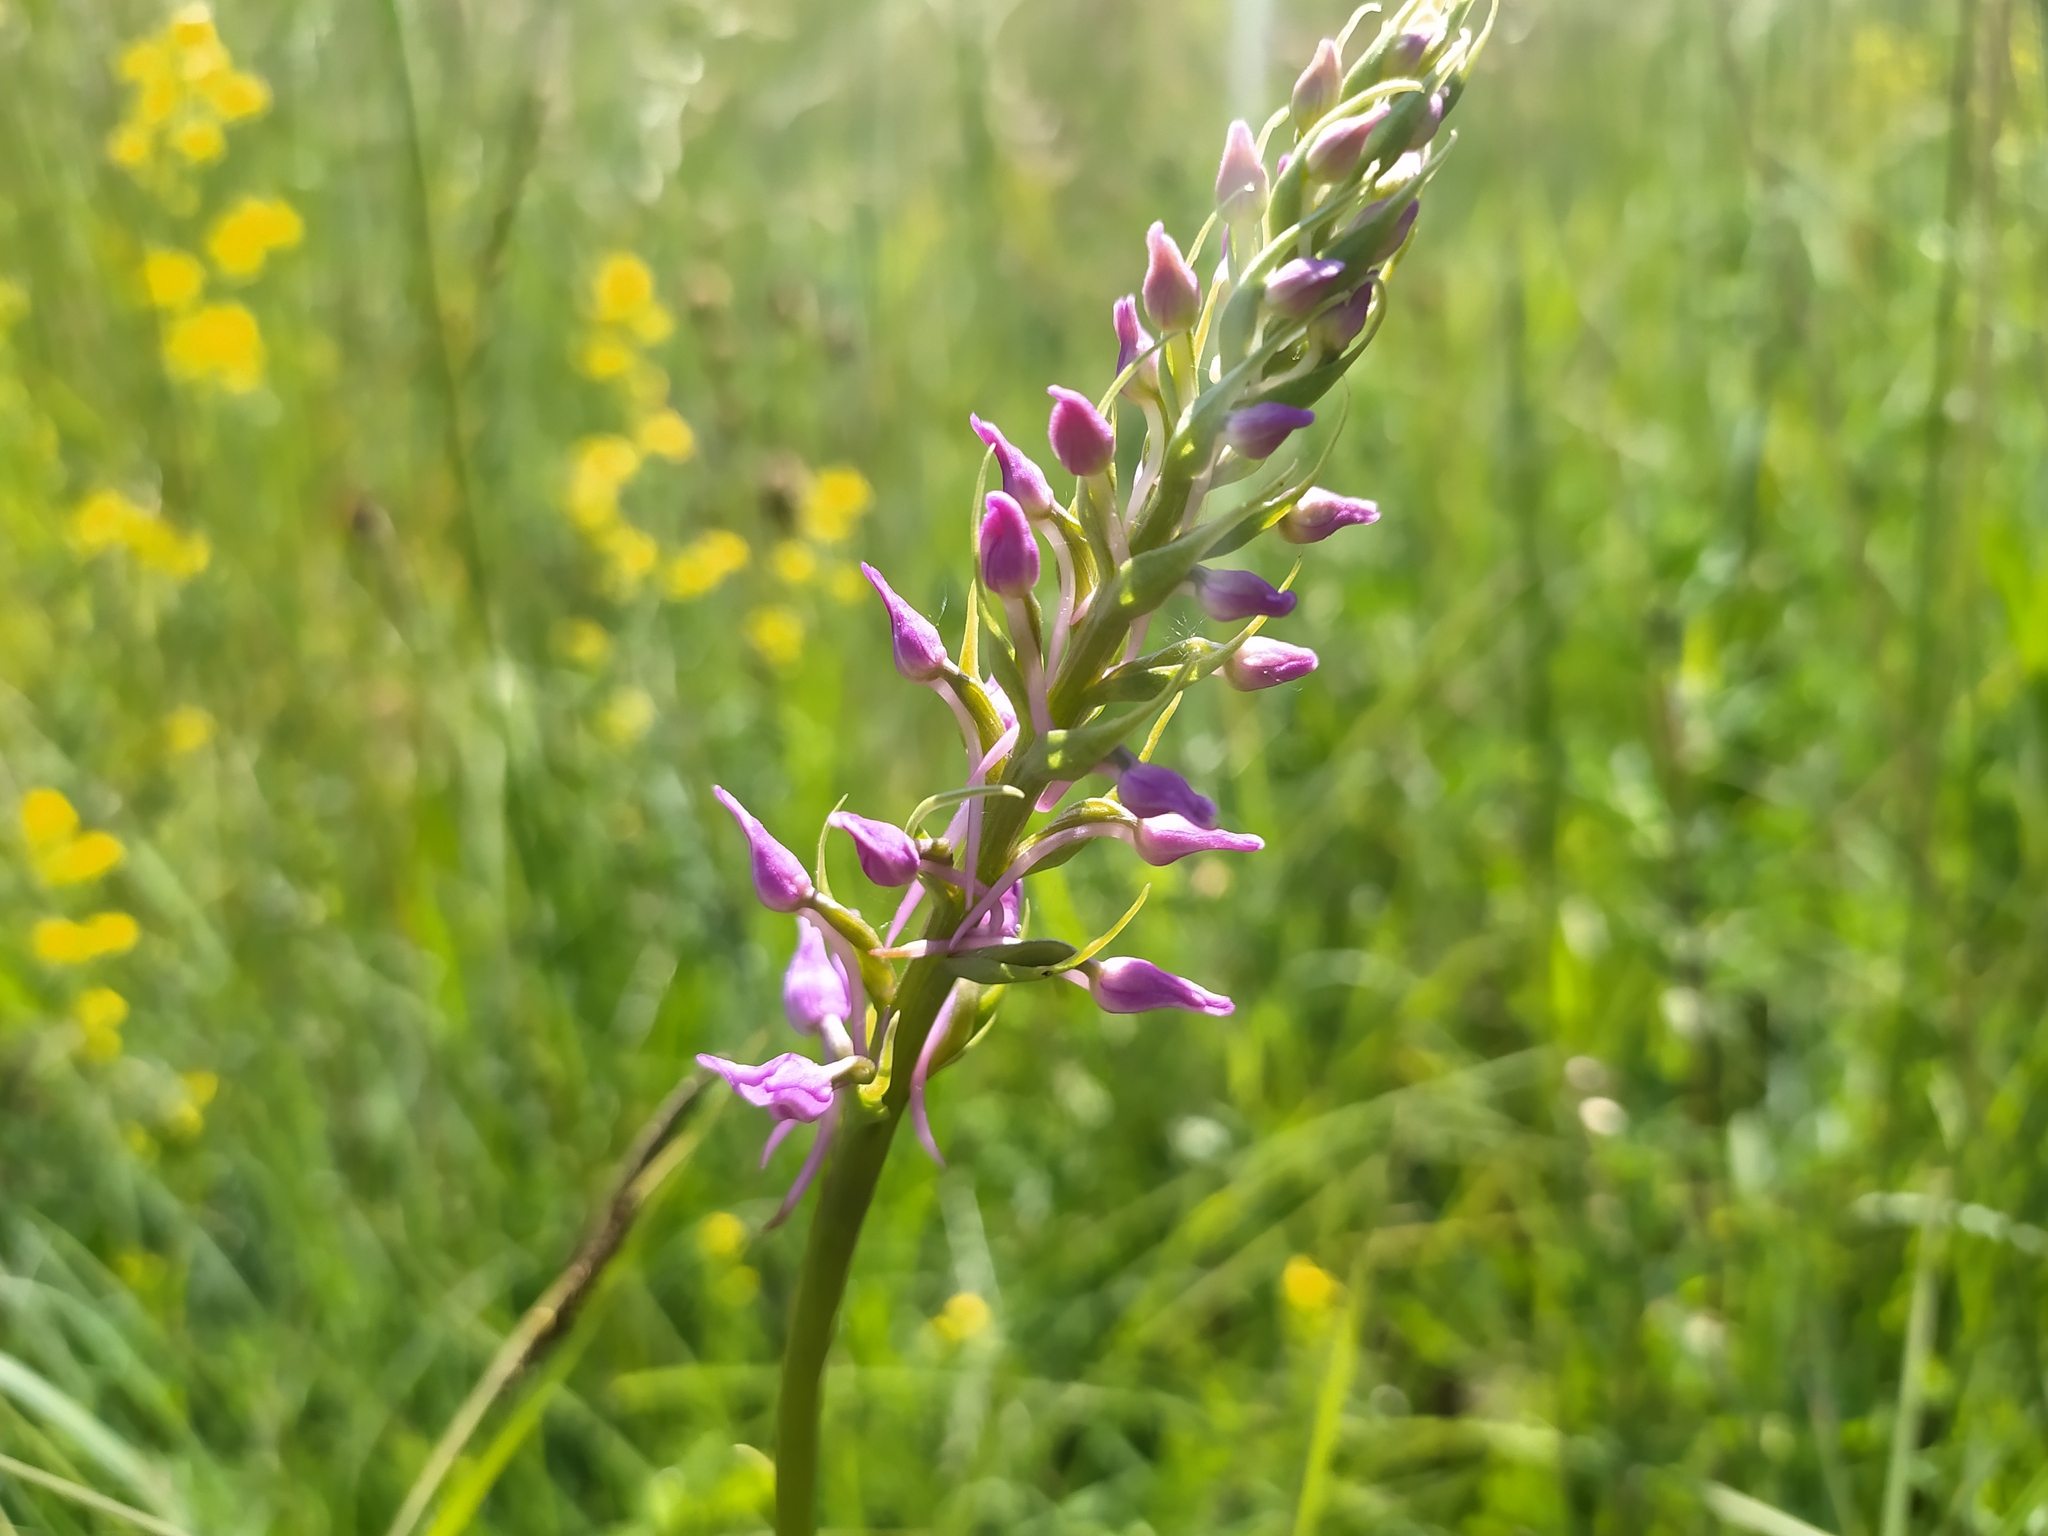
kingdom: Plantae
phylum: Tracheophyta
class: Liliopsida
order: Asparagales
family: Orchidaceae
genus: Gymnadenia
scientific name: Gymnadenia conopsea
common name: Fragrant orchid
